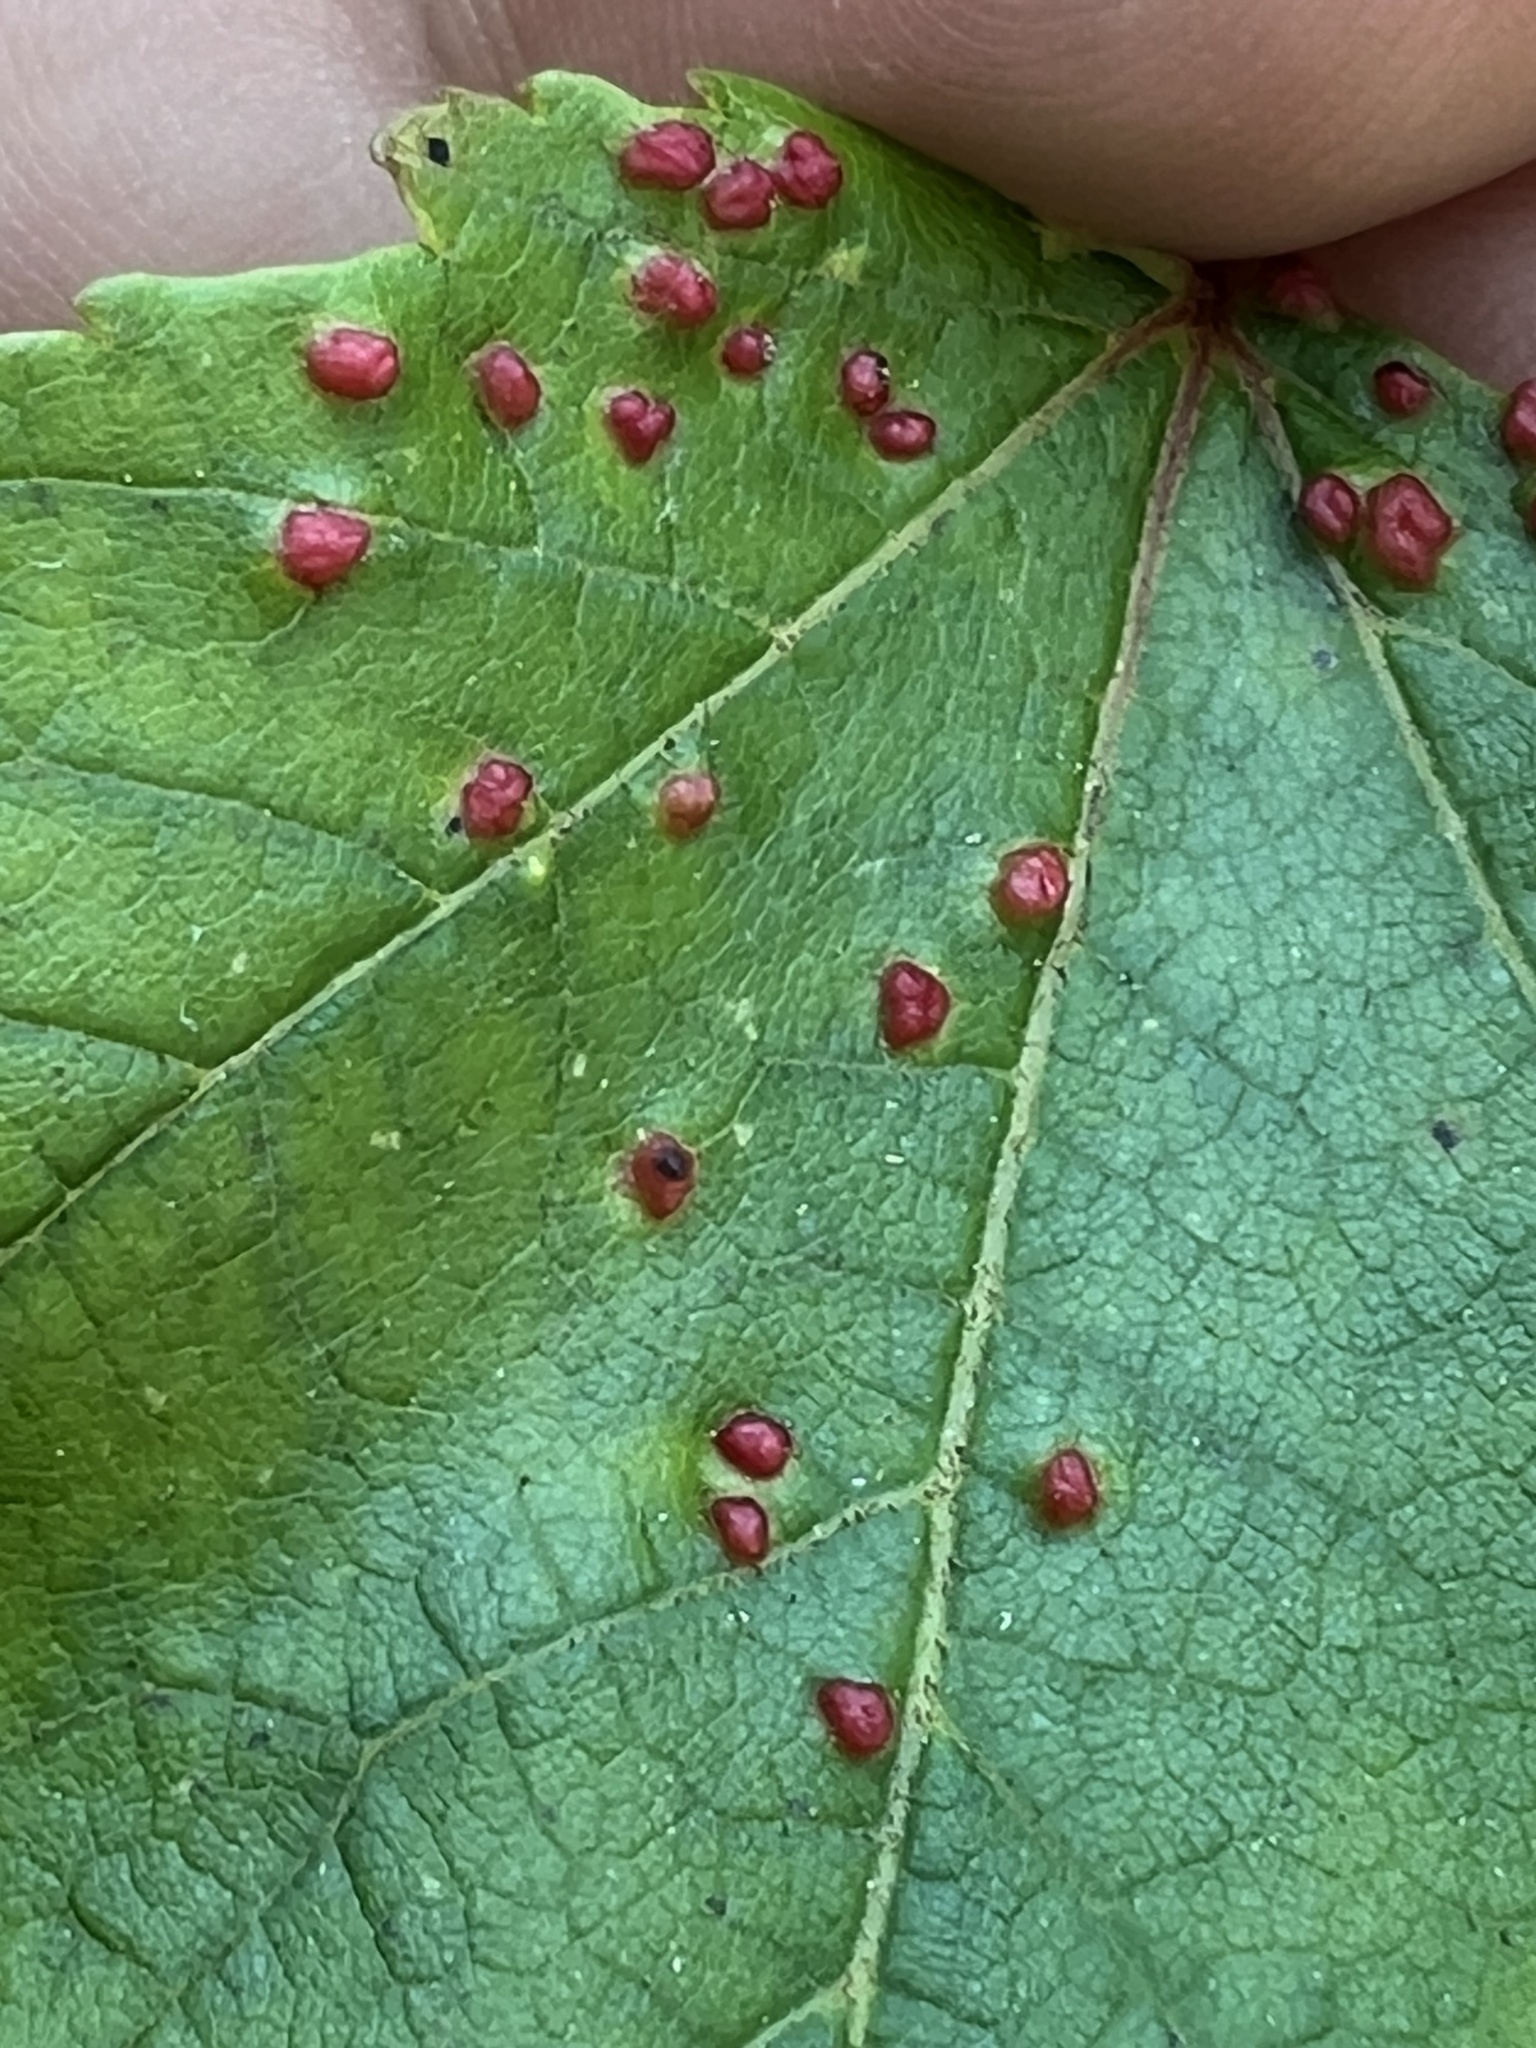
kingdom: Animalia
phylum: Arthropoda
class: Arachnida
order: Trombidiformes
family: Eriophyidae
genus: Vasates
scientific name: Vasates quadripedes
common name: Maple bladder gall mite
